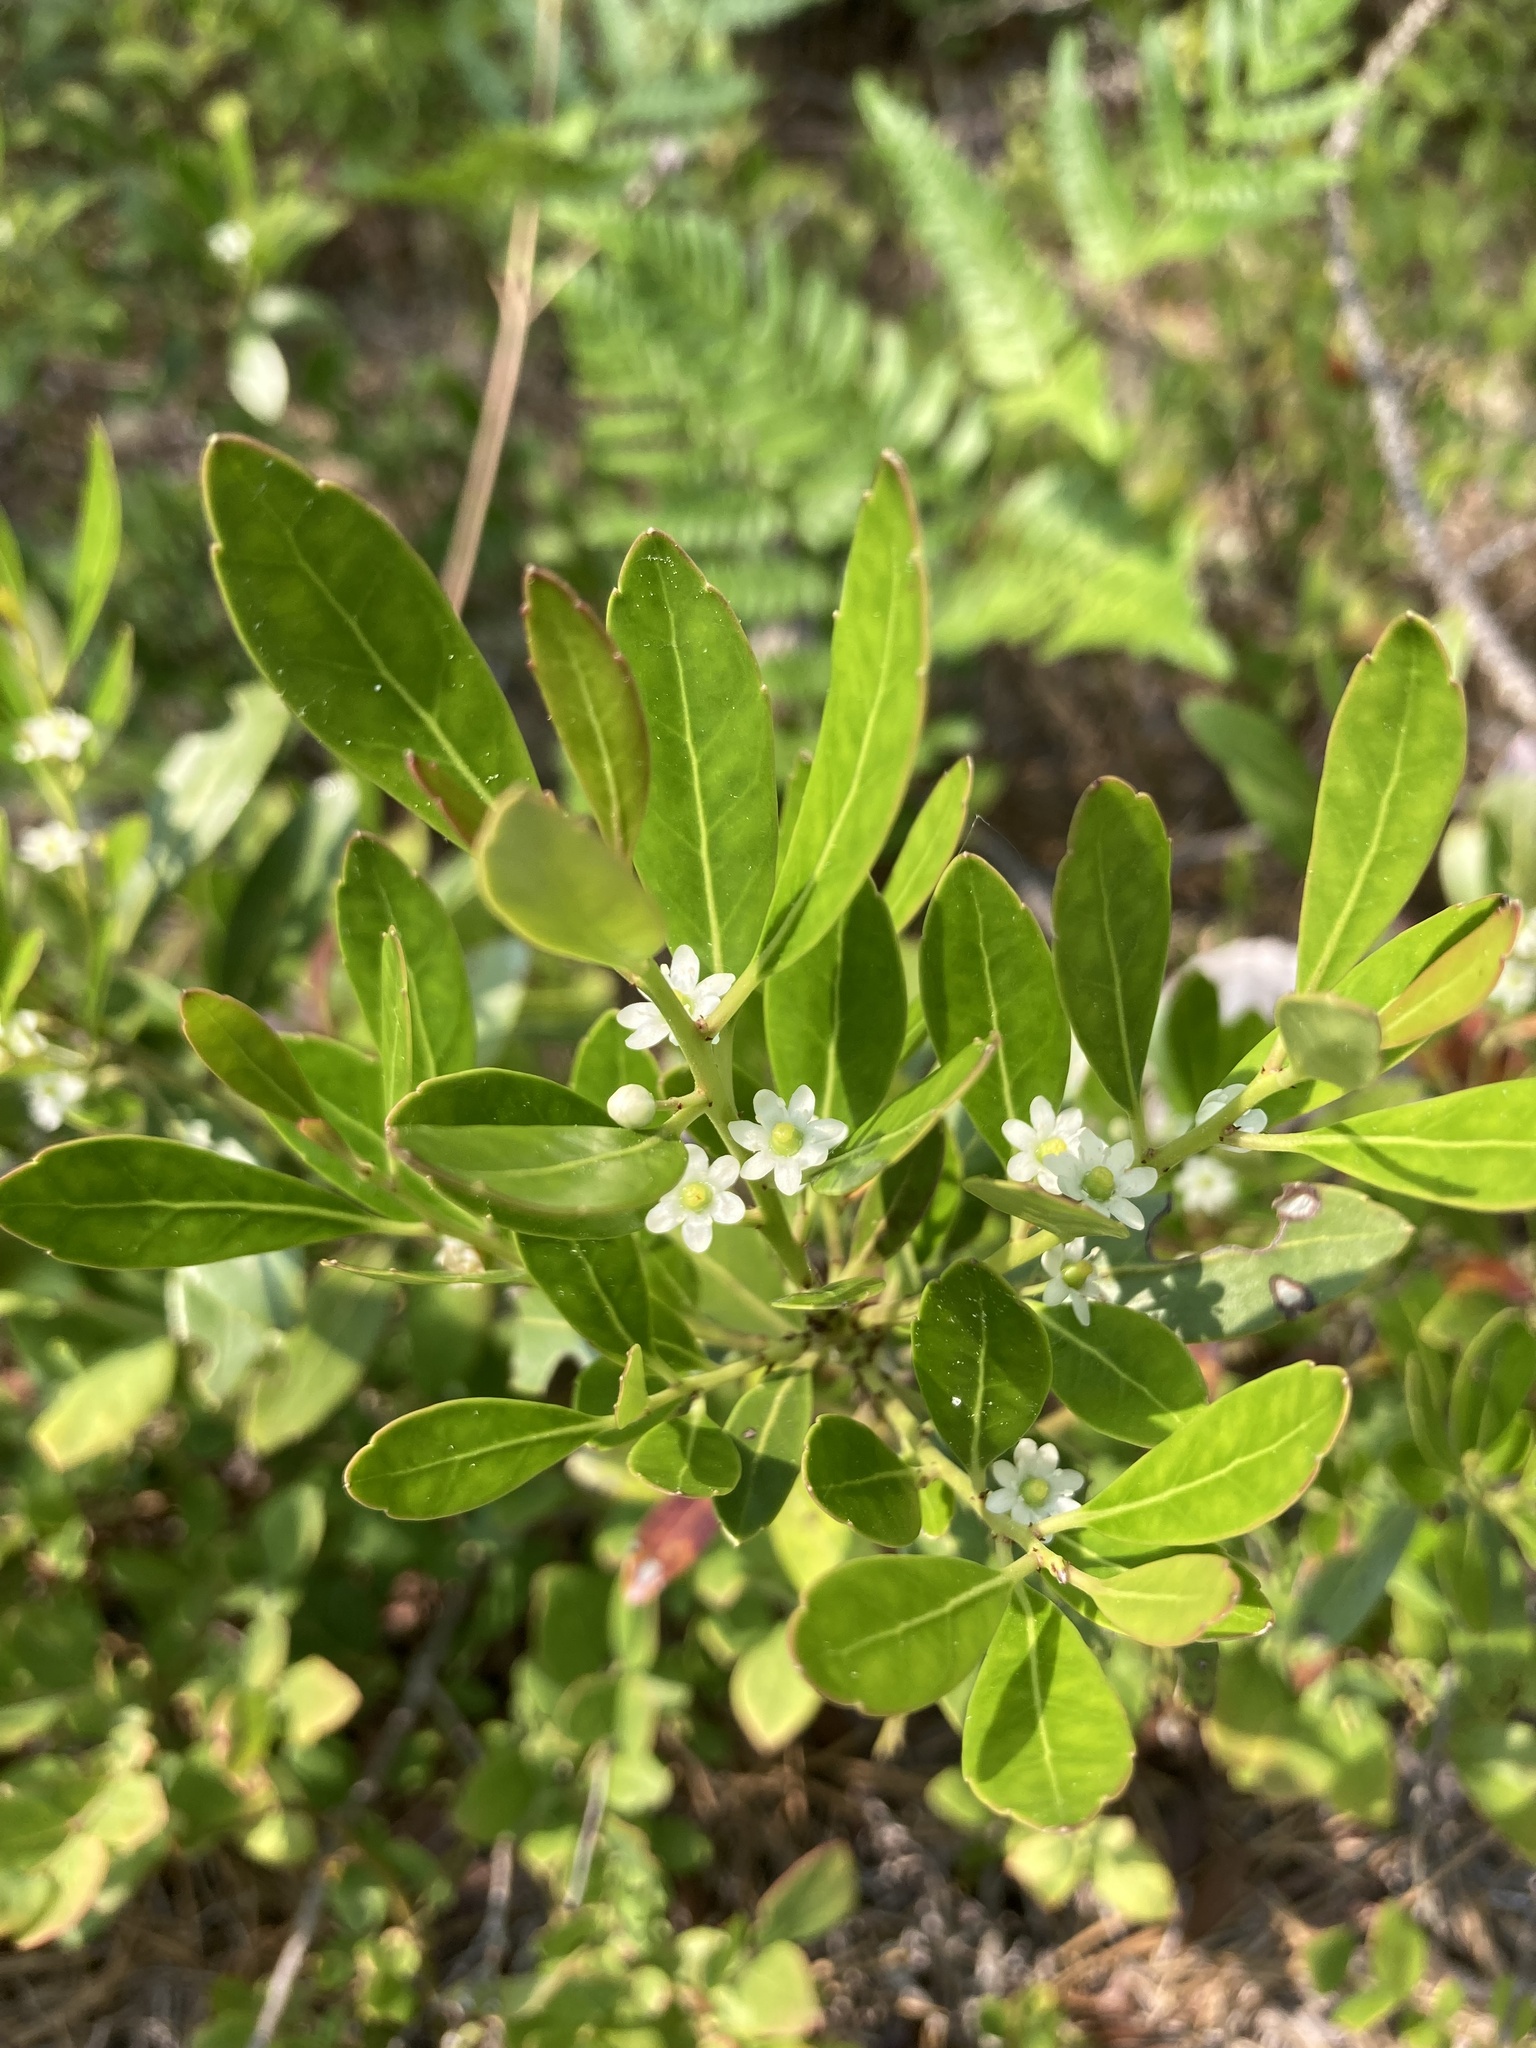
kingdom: Plantae
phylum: Tracheophyta
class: Magnoliopsida
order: Aquifoliales
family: Aquifoliaceae
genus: Ilex
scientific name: Ilex glabra
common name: Bitter gallberry
